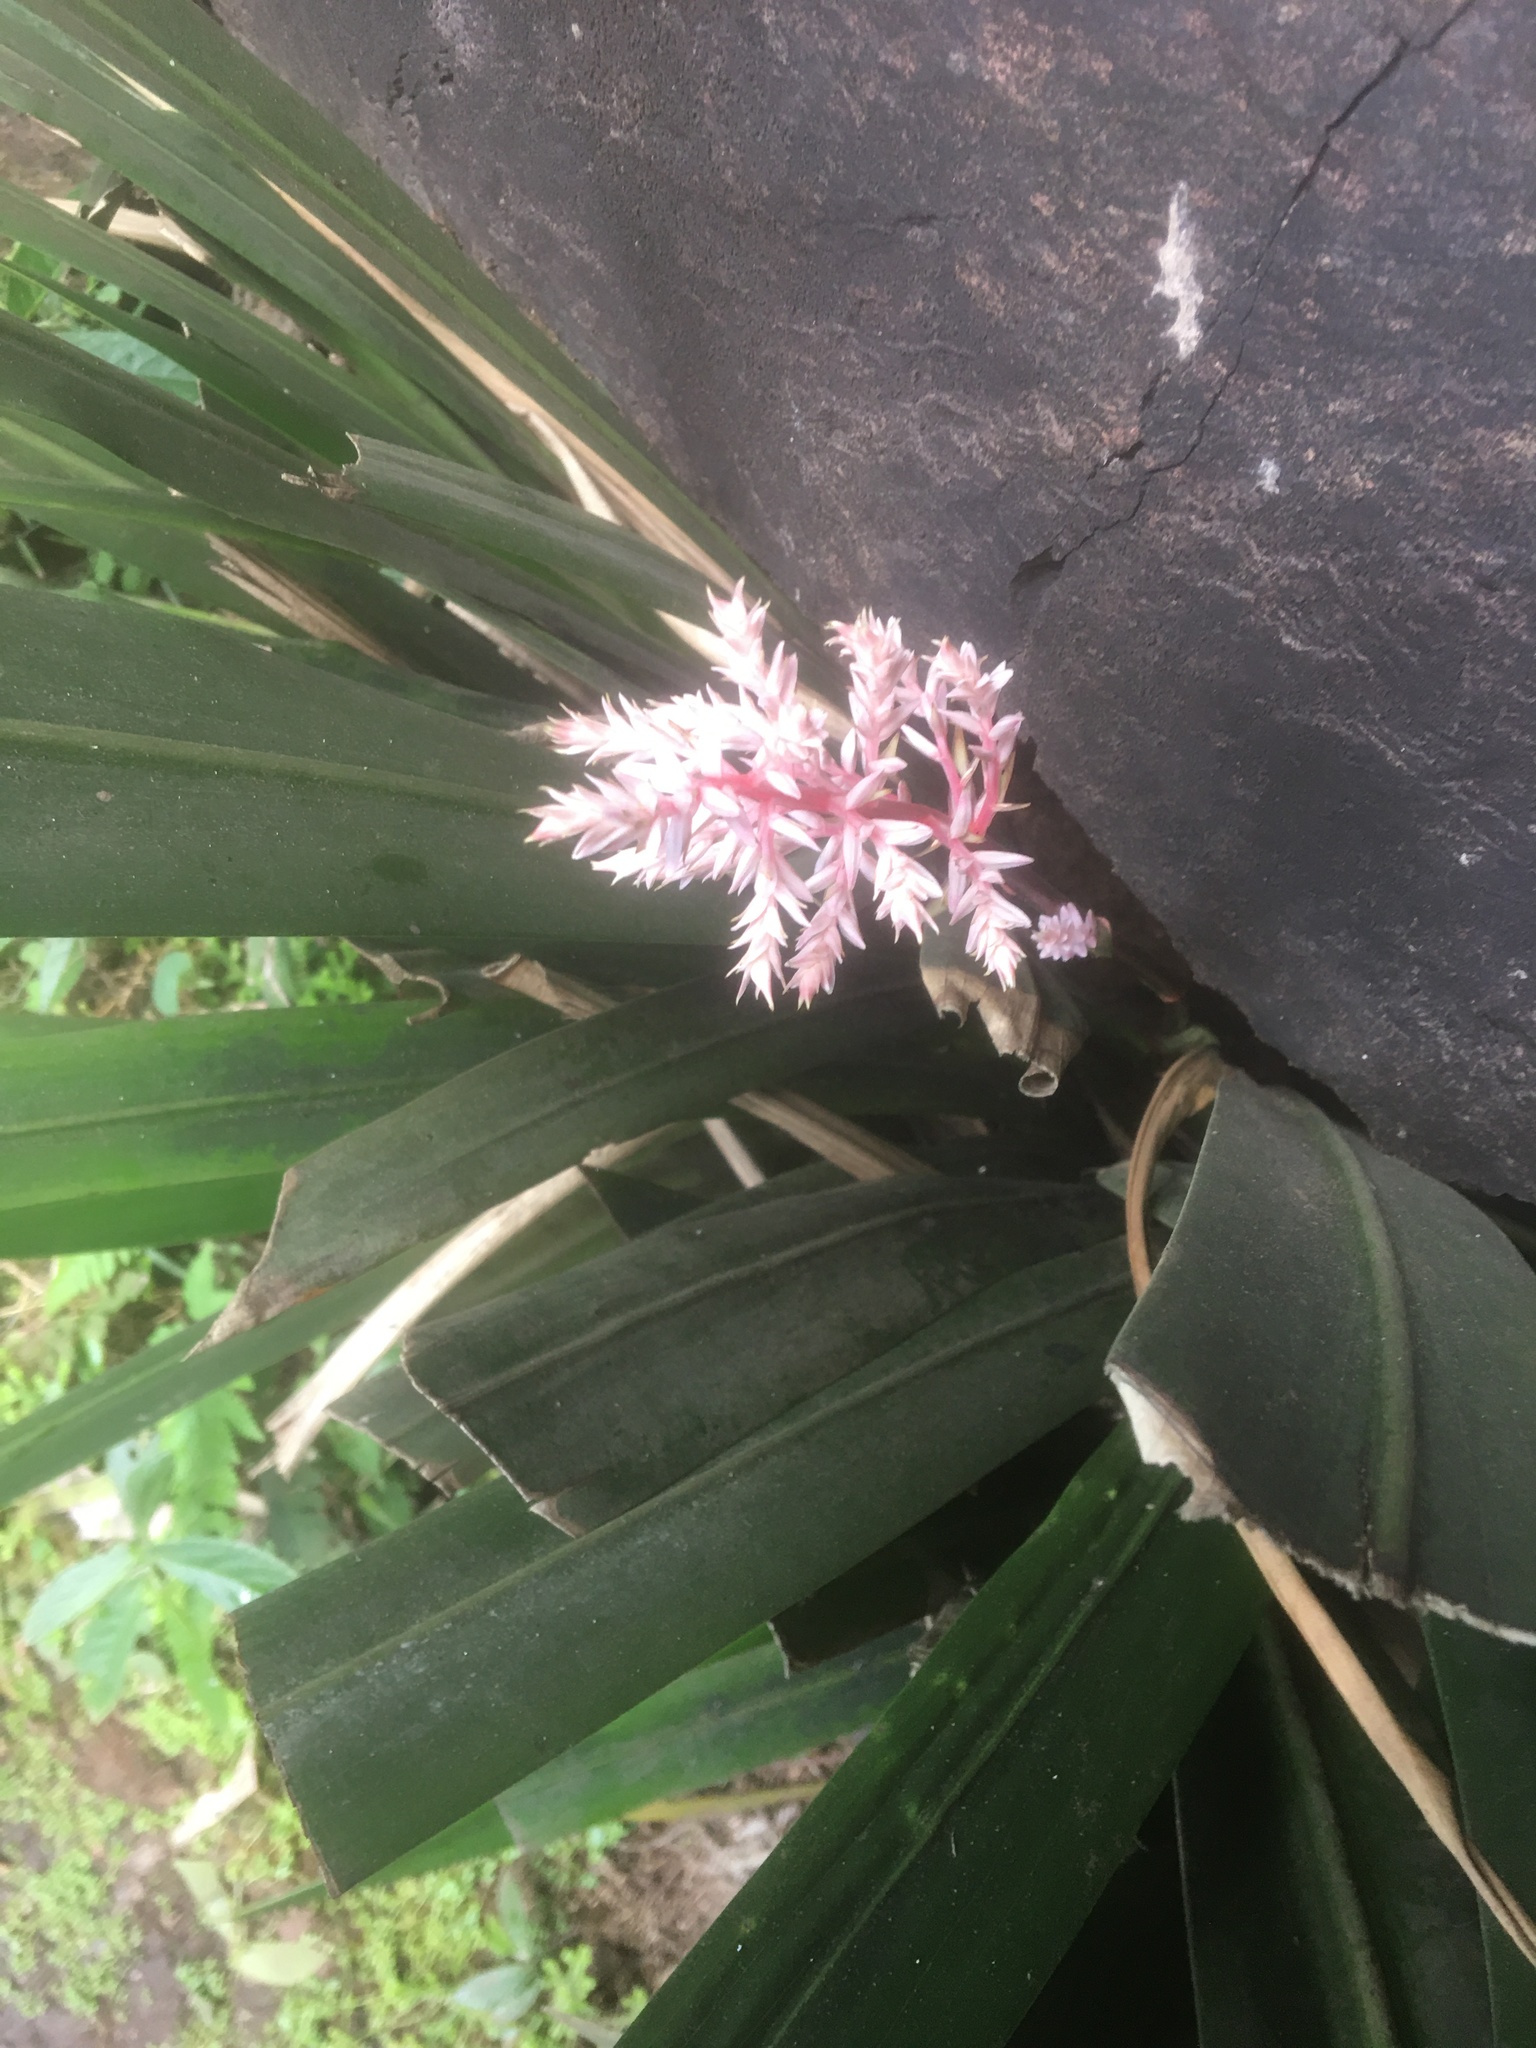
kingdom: Plantae
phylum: Tracheophyta
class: Liliopsida
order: Commelinales
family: Philydraceae
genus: Helmholtzia
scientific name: Helmholtzia glaberrima
